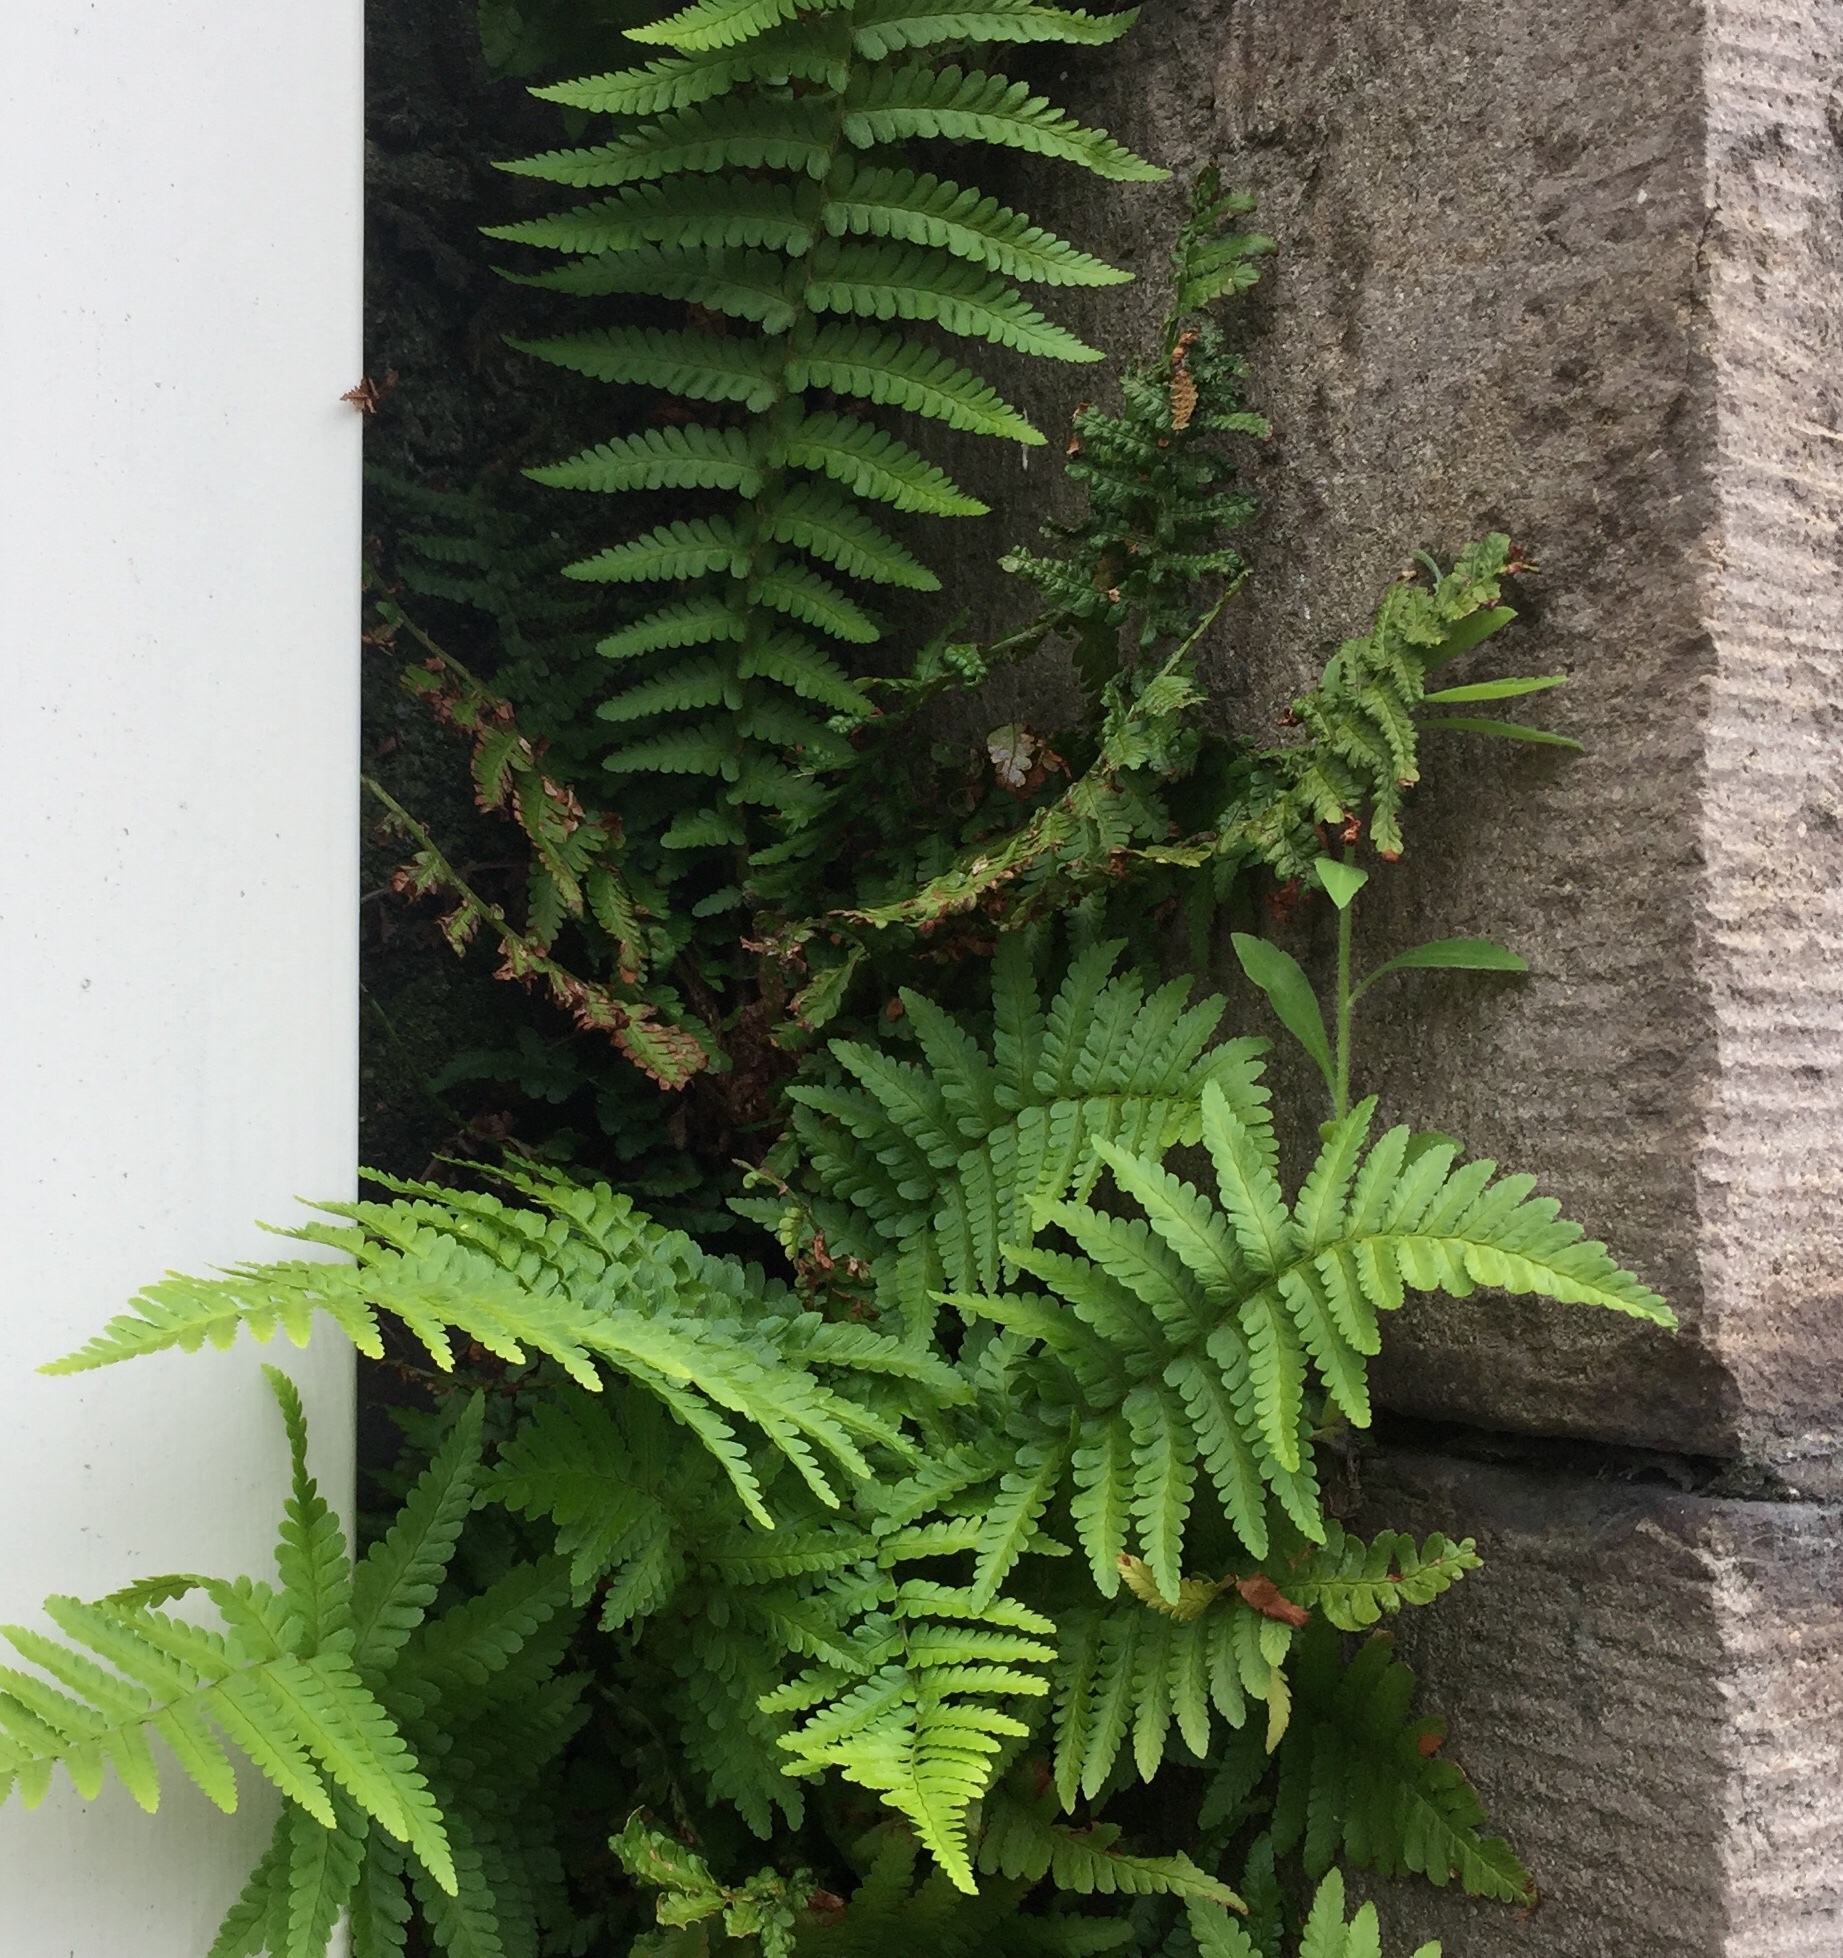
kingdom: Plantae
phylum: Tracheophyta
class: Polypodiopsida
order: Polypodiales
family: Dryopteridaceae
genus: Dryopteris
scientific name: Dryopteris filix-mas
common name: Male fern
